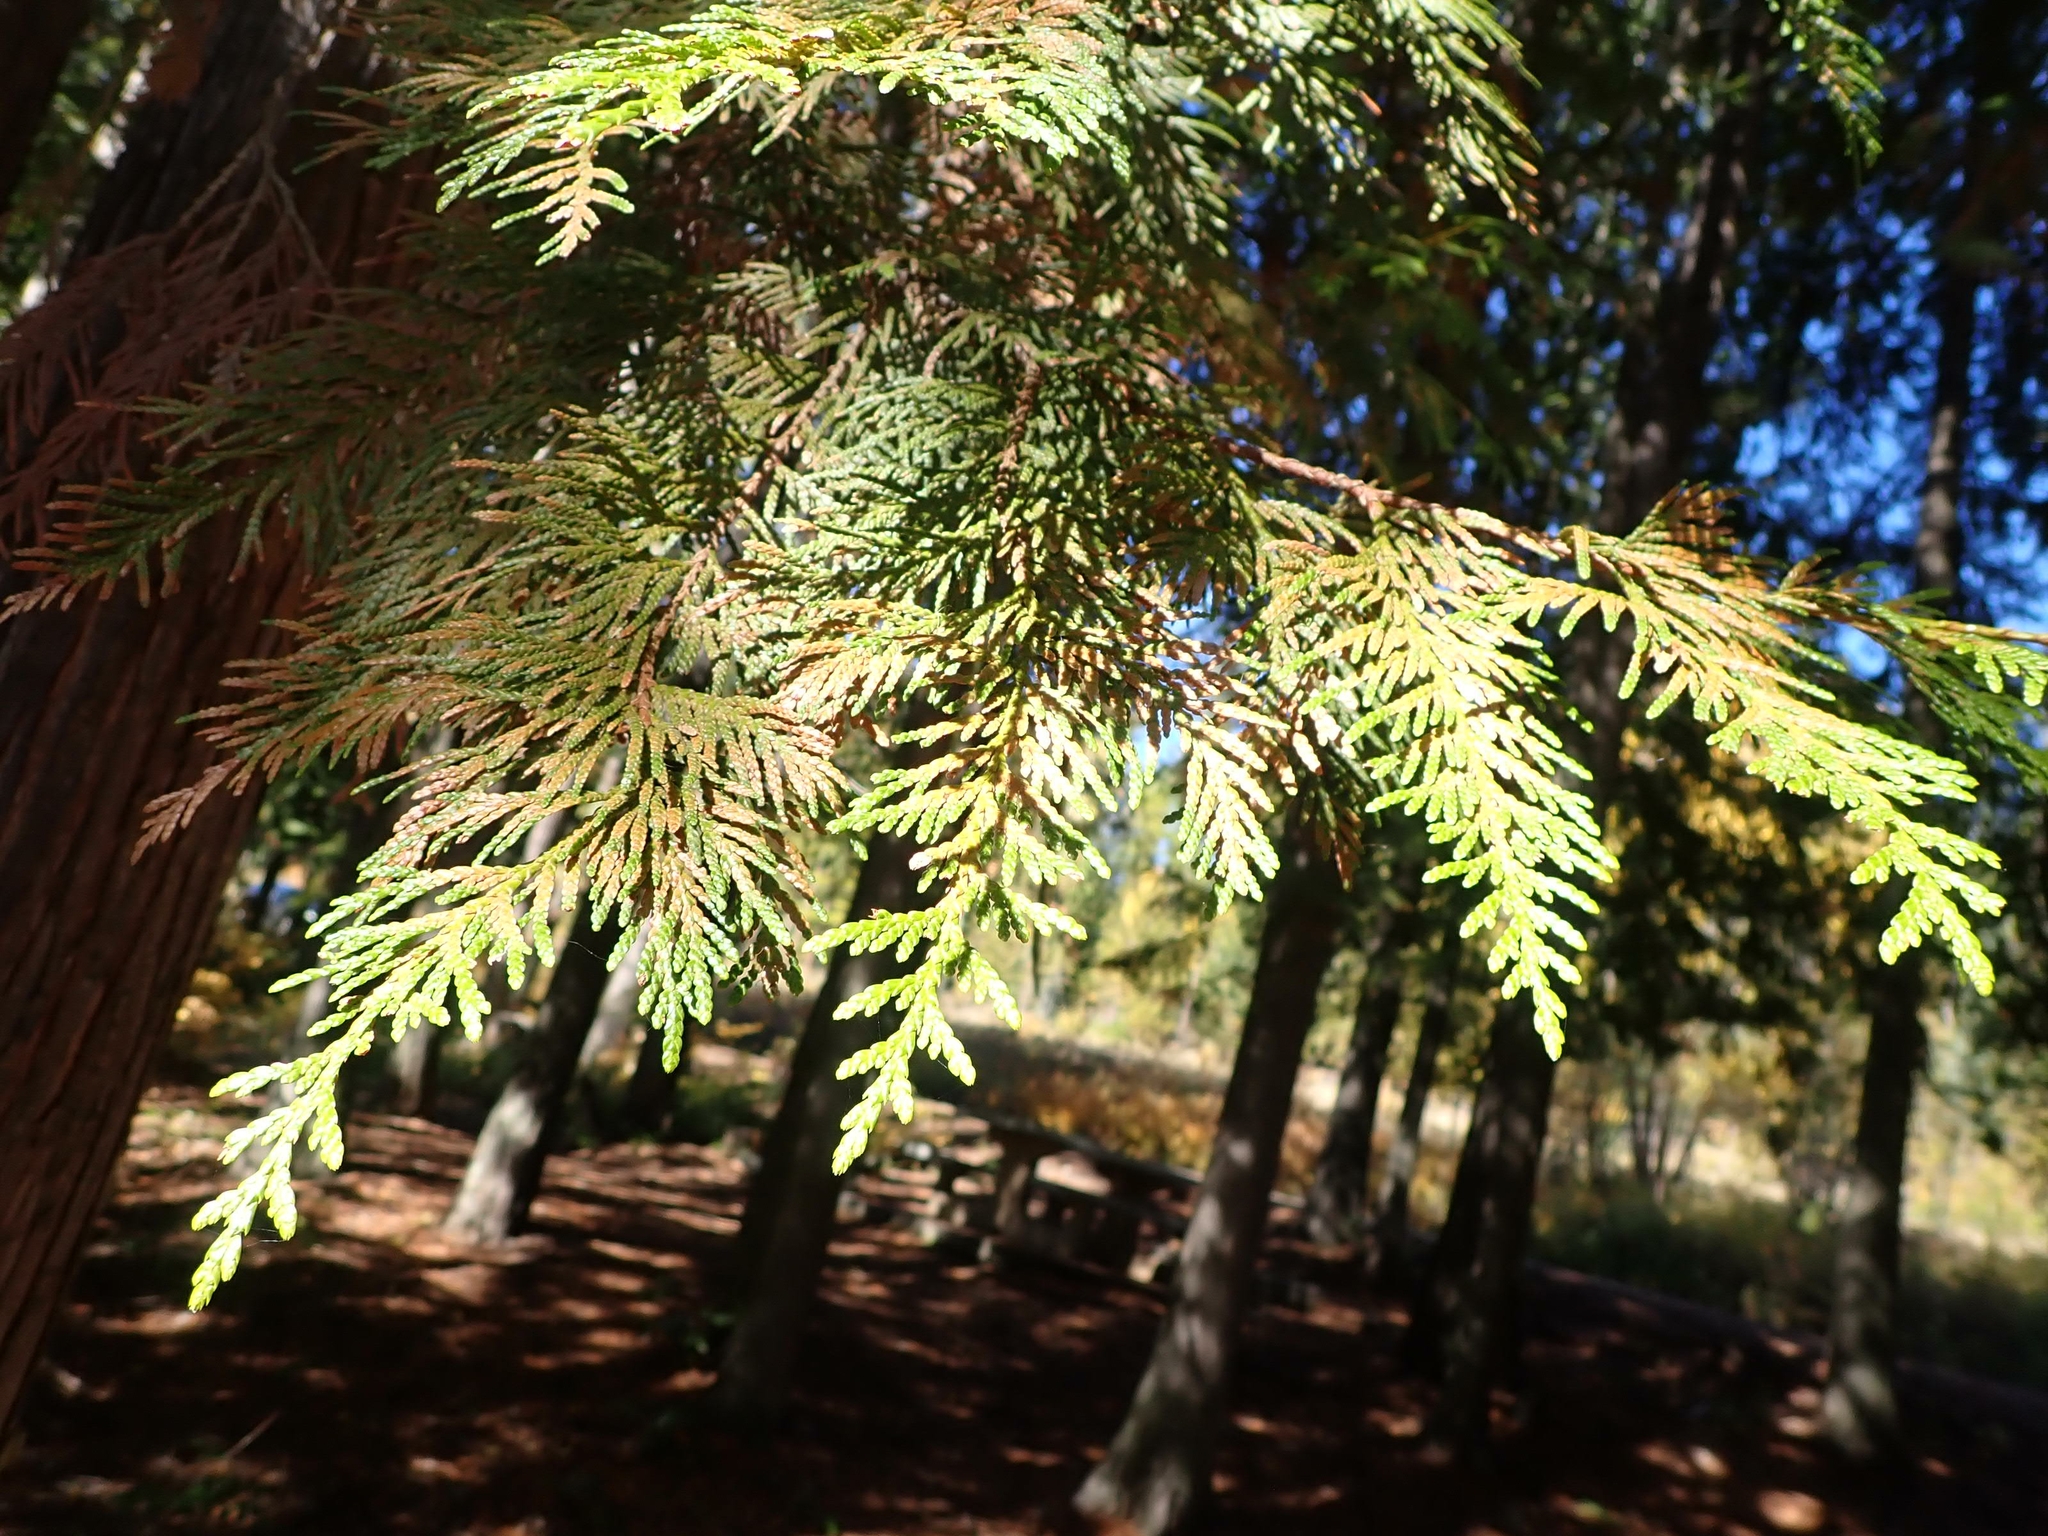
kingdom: Plantae
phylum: Tracheophyta
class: Pinopsida
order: Pinales
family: Cupressaceae
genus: Thuja
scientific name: Thuja plicata
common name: Western red-cedar
